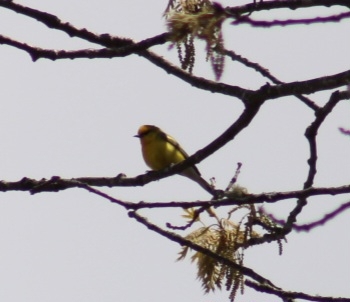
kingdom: Animalia
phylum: Chordata
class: Aves
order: Passeriformes
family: Parulidae
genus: Vermivora
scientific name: Vermivora cyanoptera
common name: Blue-winged warbler
